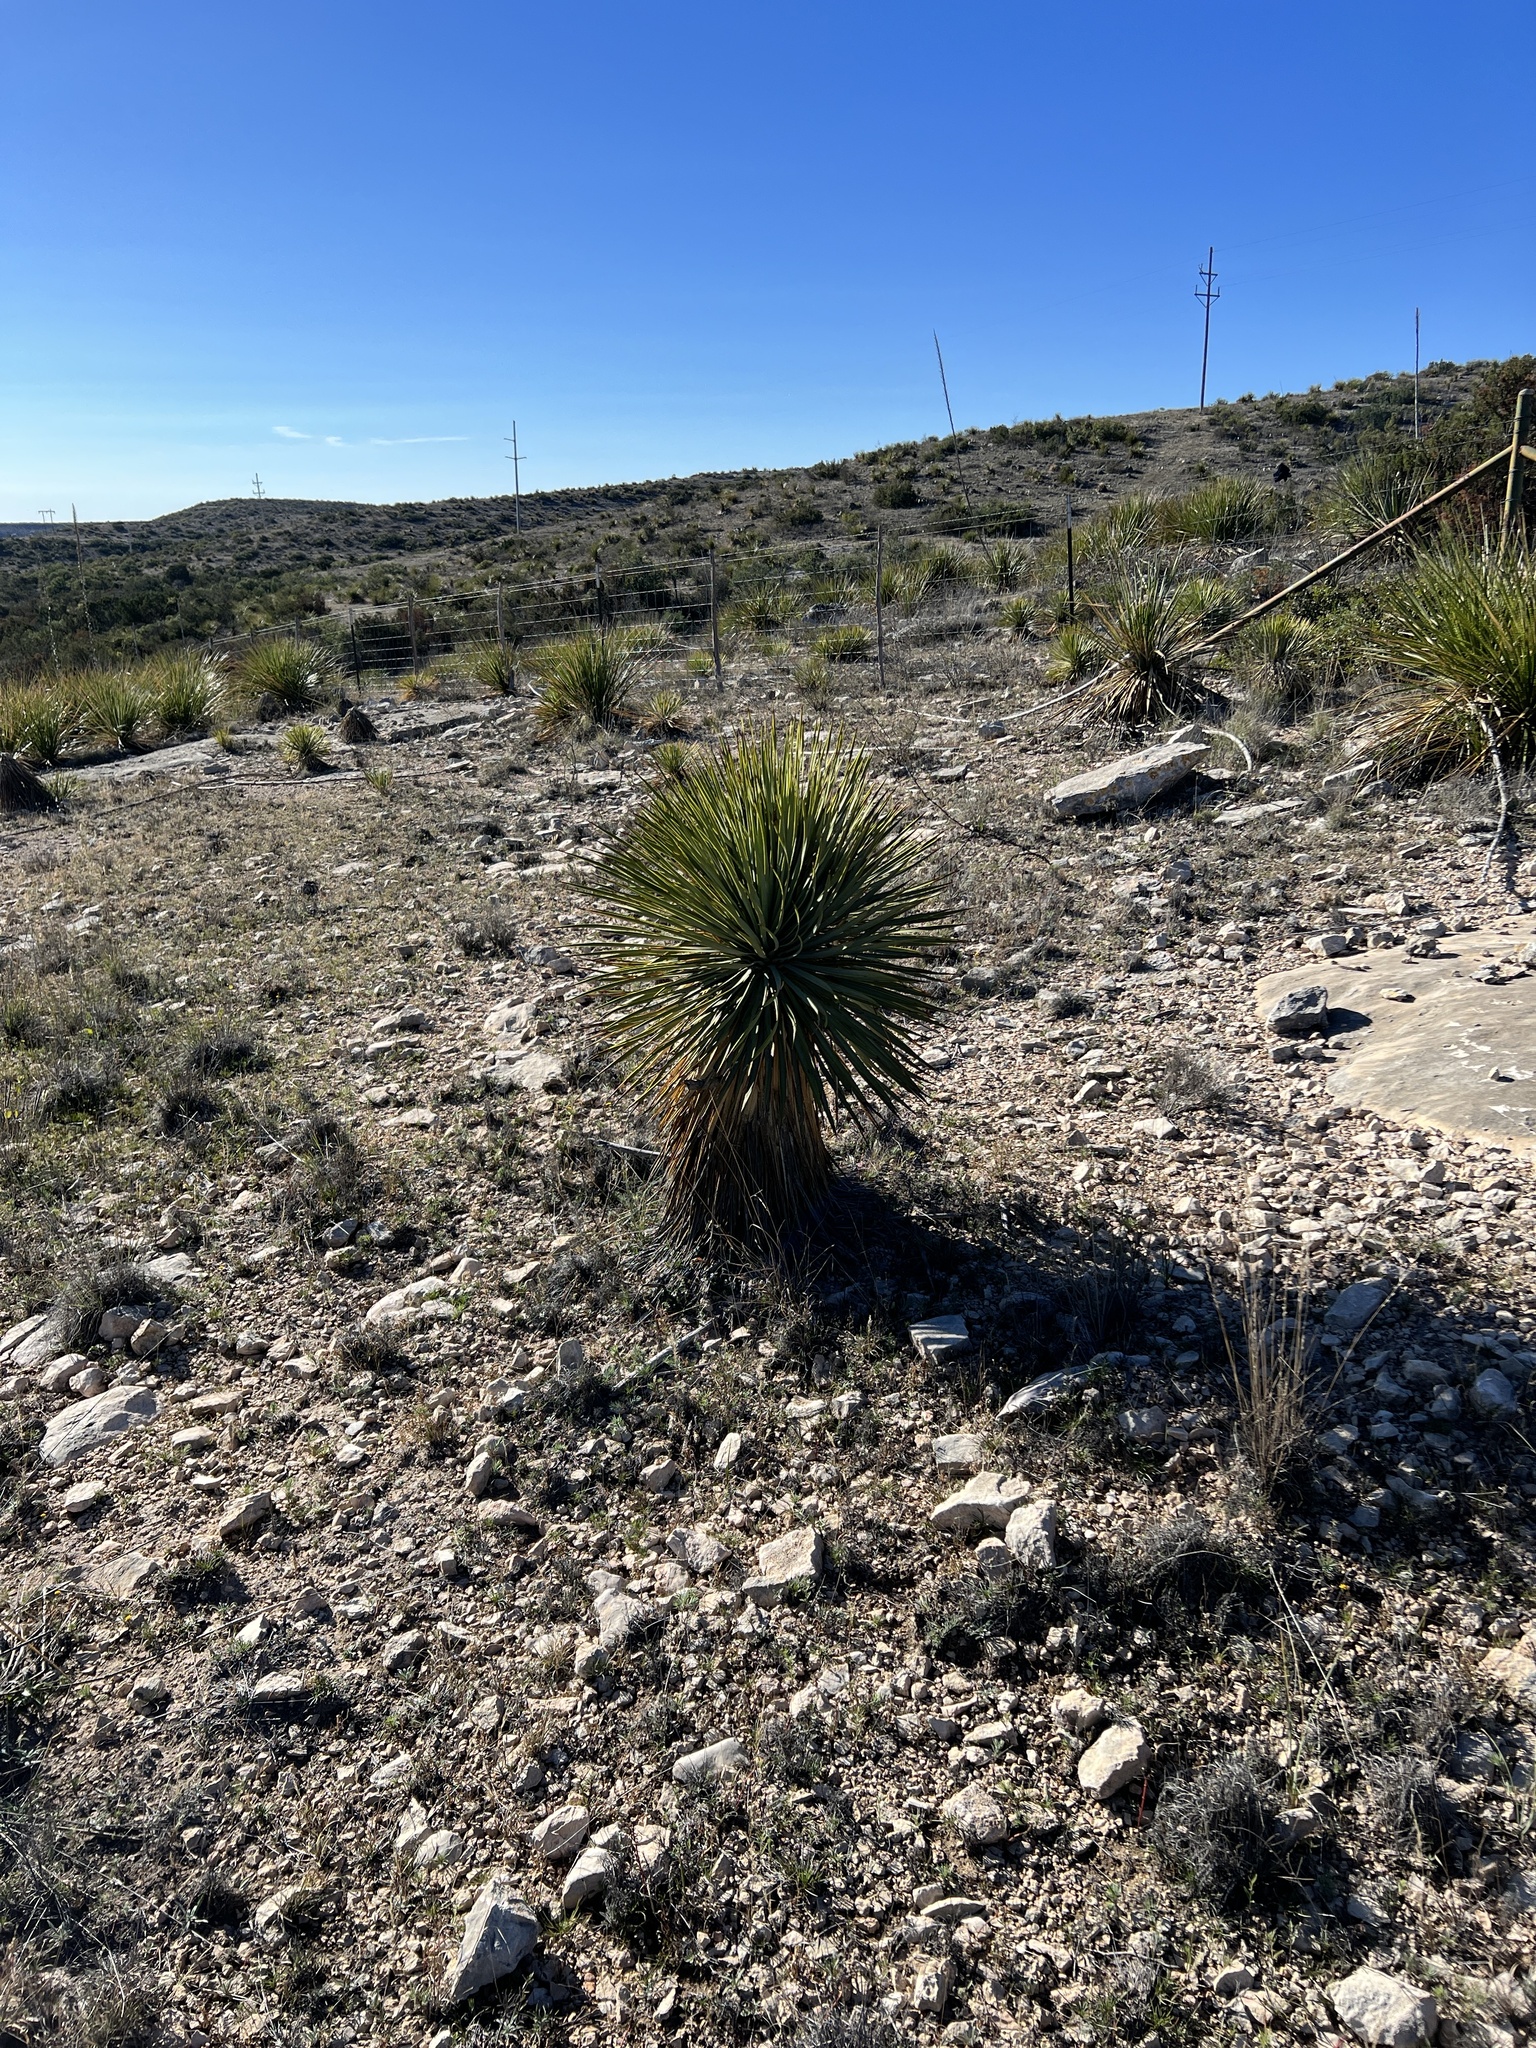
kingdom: Plantae
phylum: Tracheophyta
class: Liliopsida
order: Asparagales
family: Asparagaceae
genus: Yucca
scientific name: Yucca thompsoniana
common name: Trans-pecos yucca
